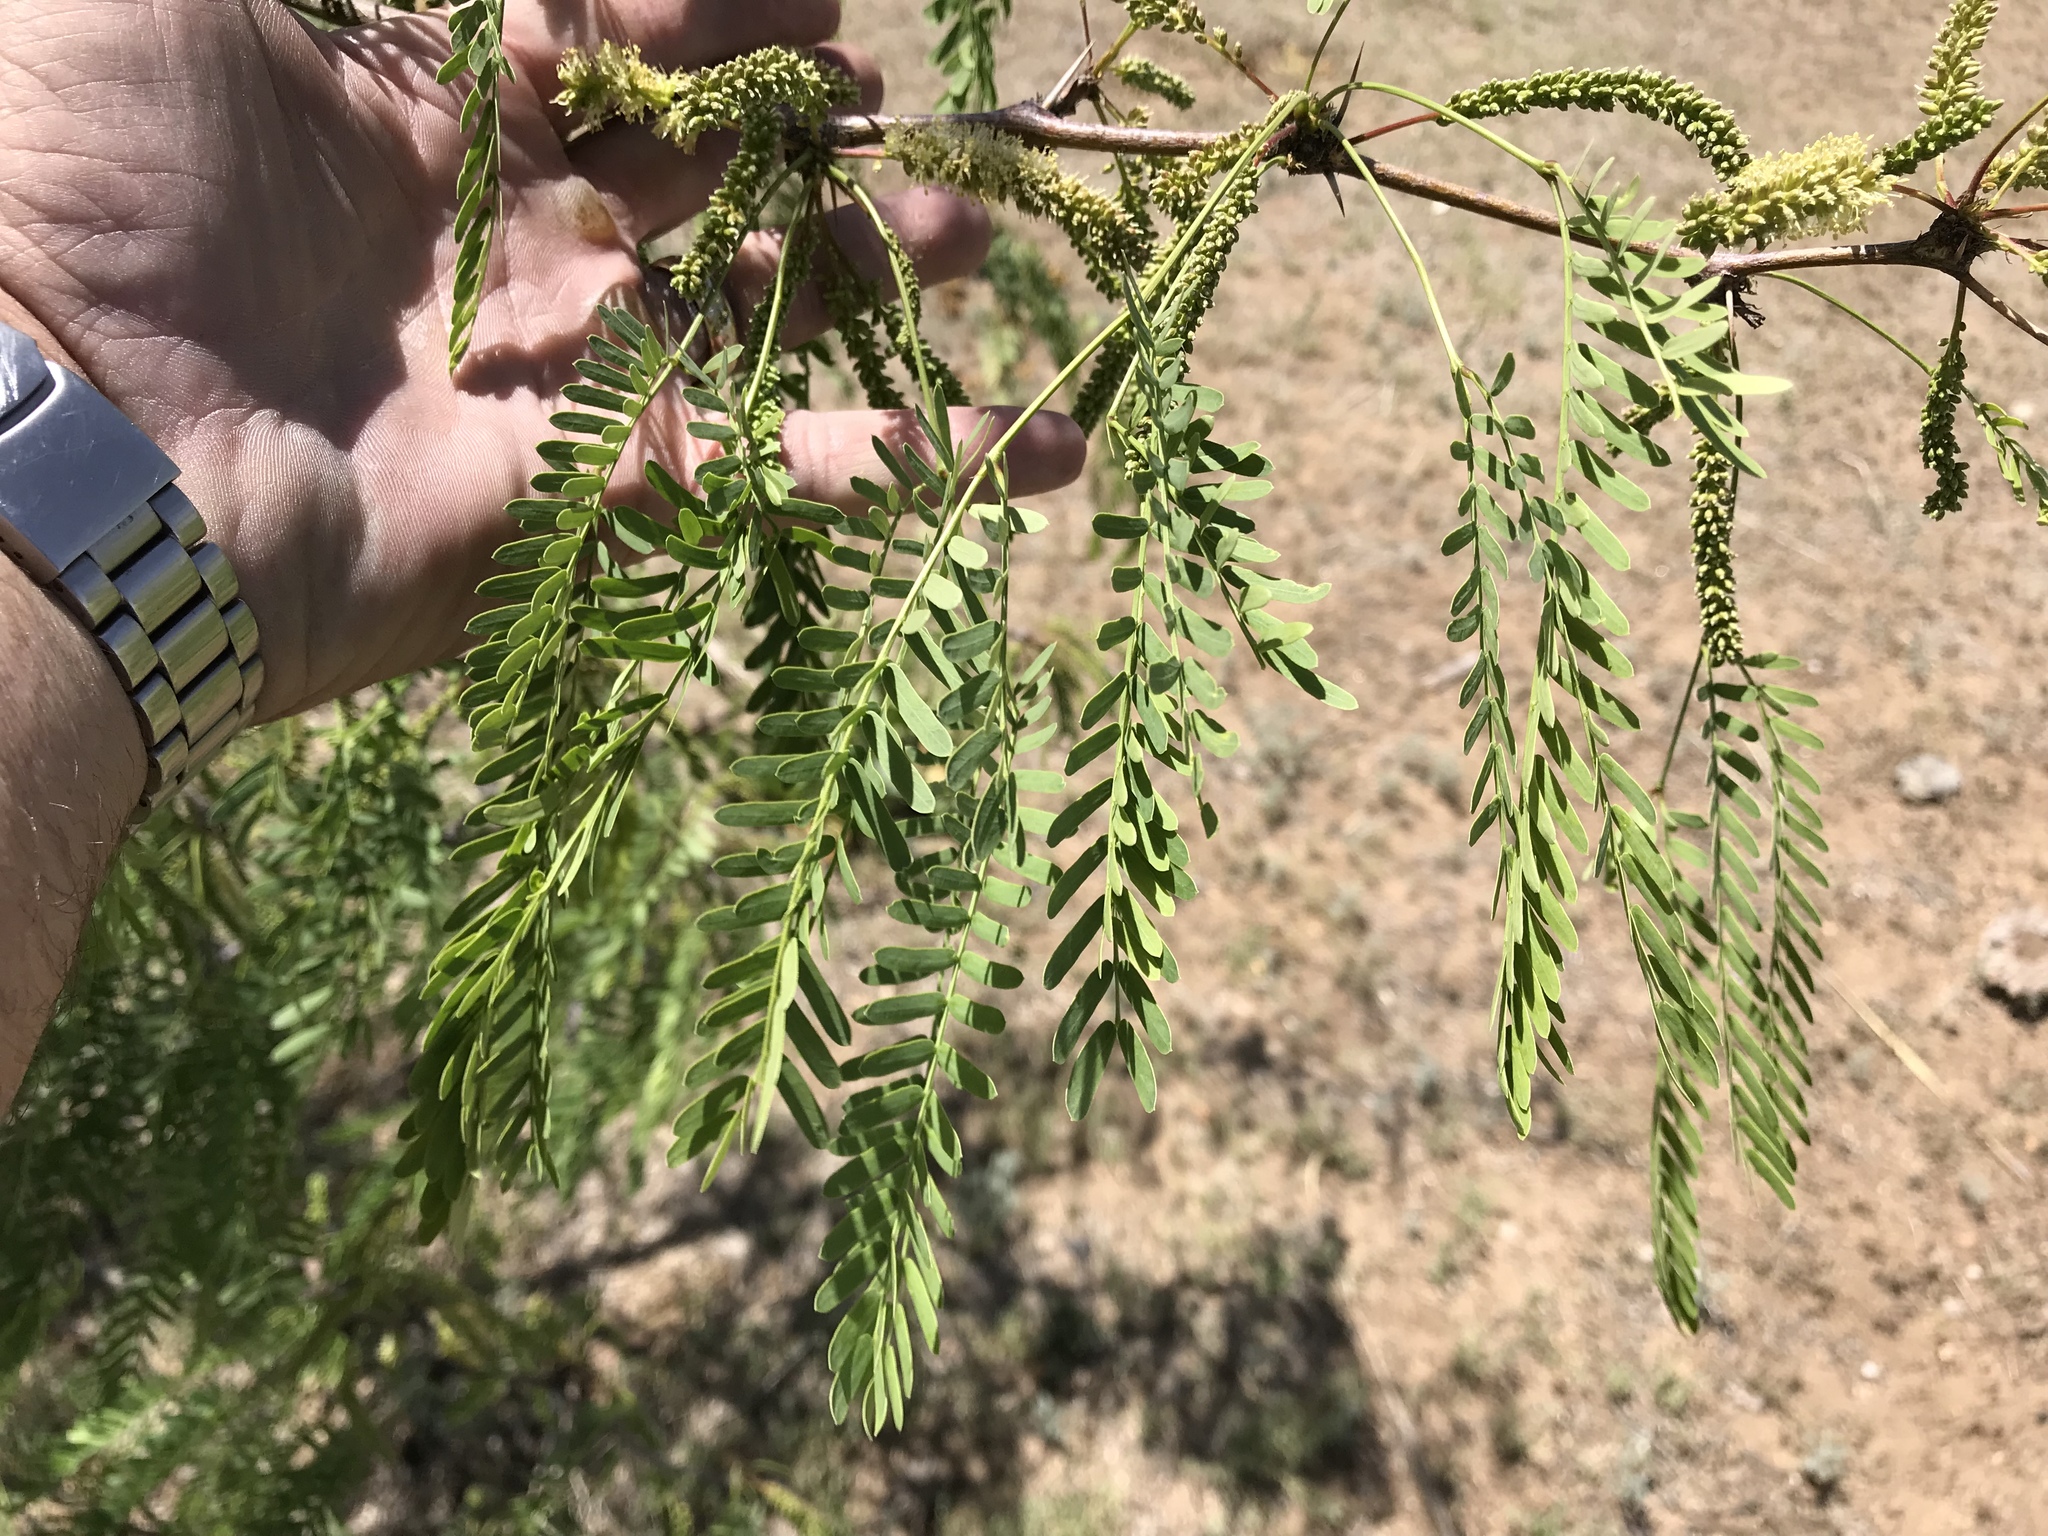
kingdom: Plantae
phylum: Tracheophyta
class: Magnoliopsida
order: Fabales
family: Fabaceae
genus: Prosopis
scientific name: Prosopis glandulosa
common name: Honey mesquite
